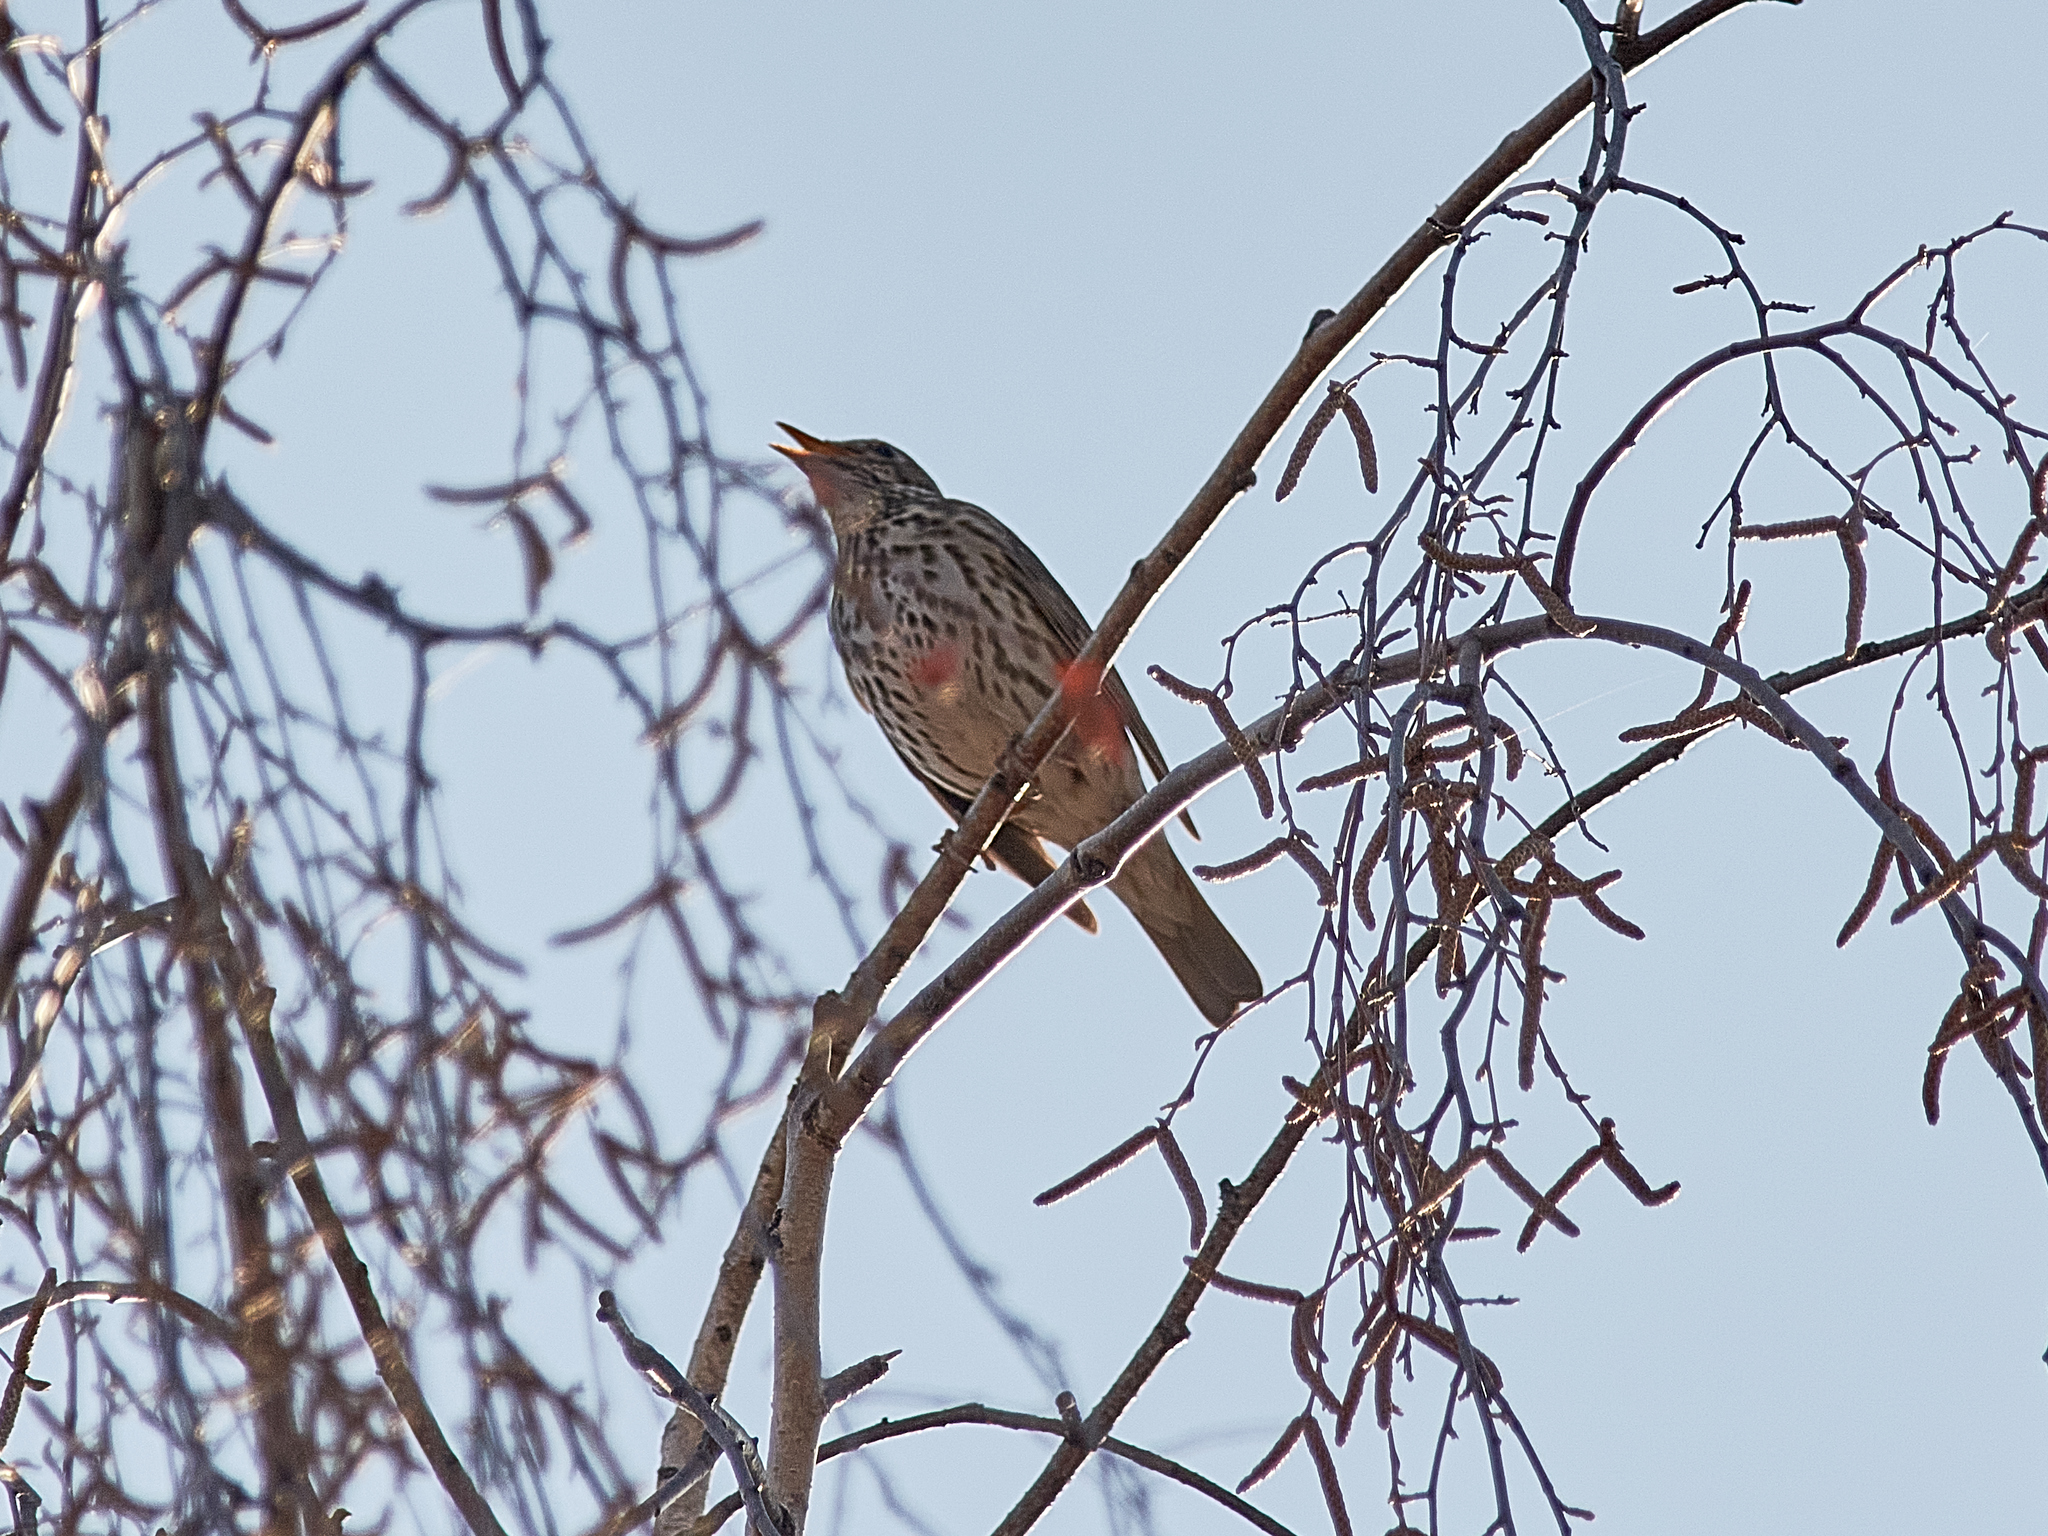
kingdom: Animalia
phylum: Chordata
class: Aves
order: Passeriformes
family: Turdidae
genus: Turdus
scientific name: Turdus philomelos
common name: Song thrush
